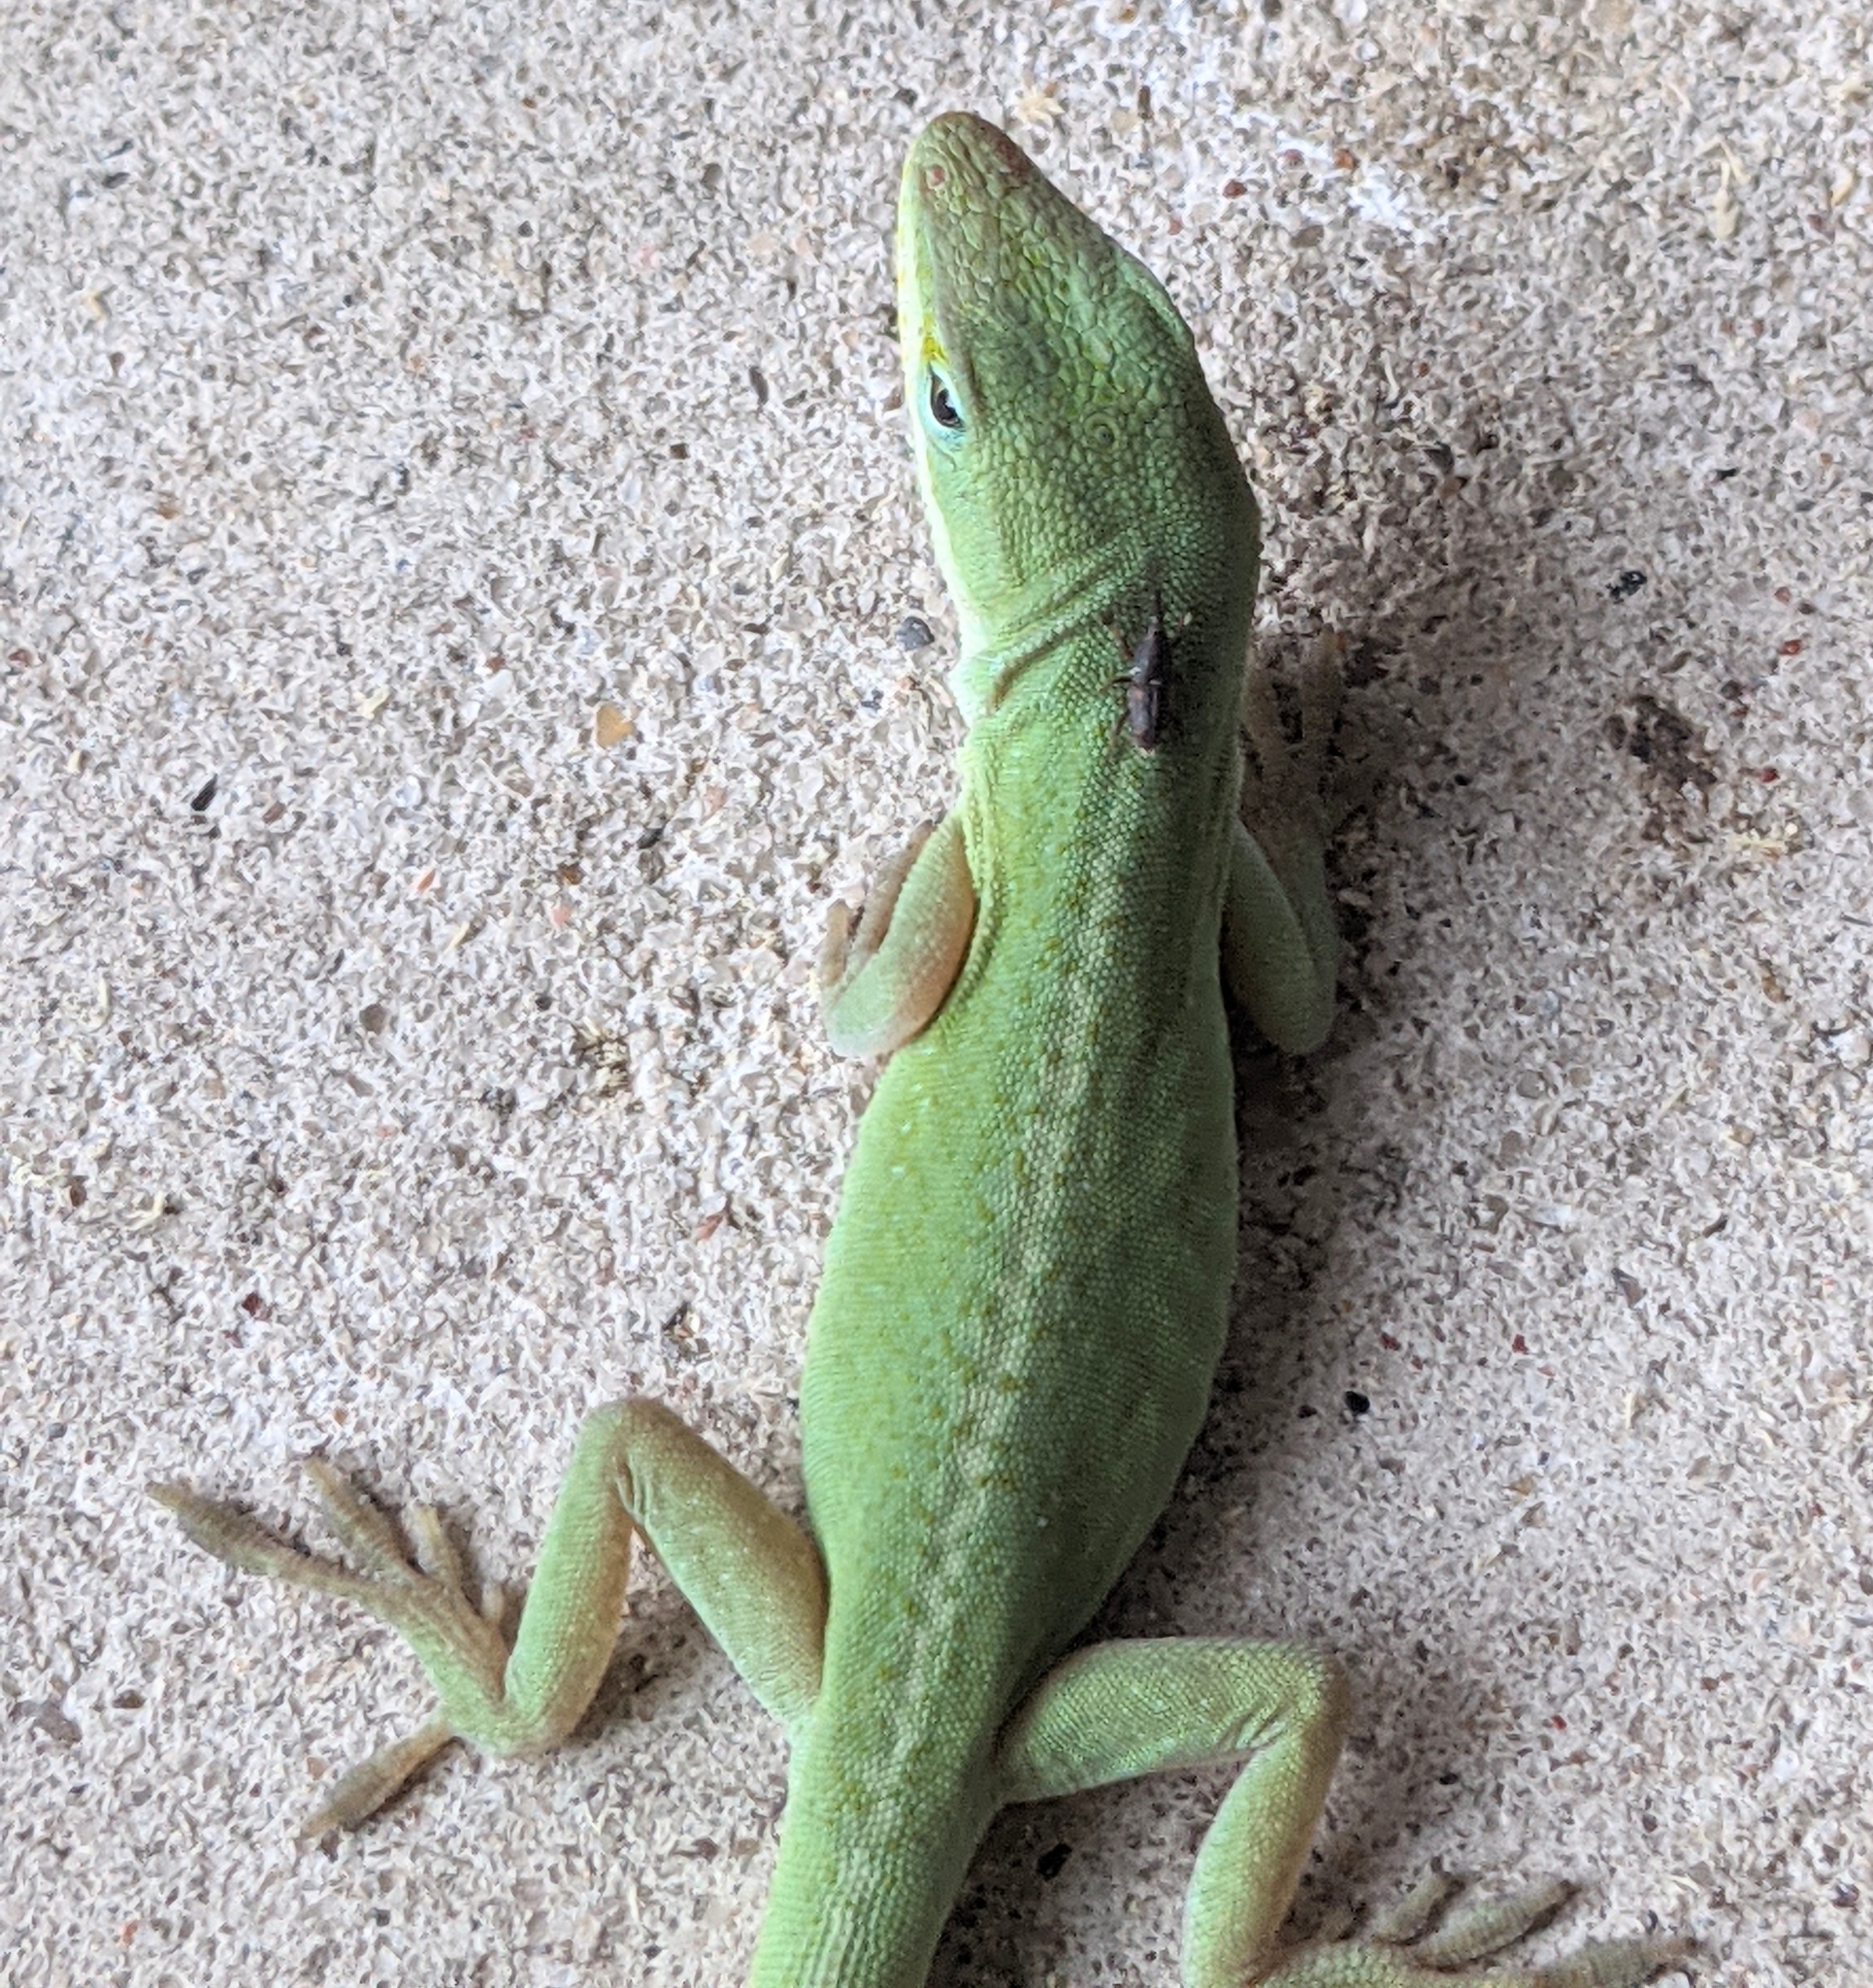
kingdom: Animalia
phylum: Chordata
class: Squamata
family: Dactyloidae
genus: Anolis
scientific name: Anolis carolinensis
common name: Green anole
